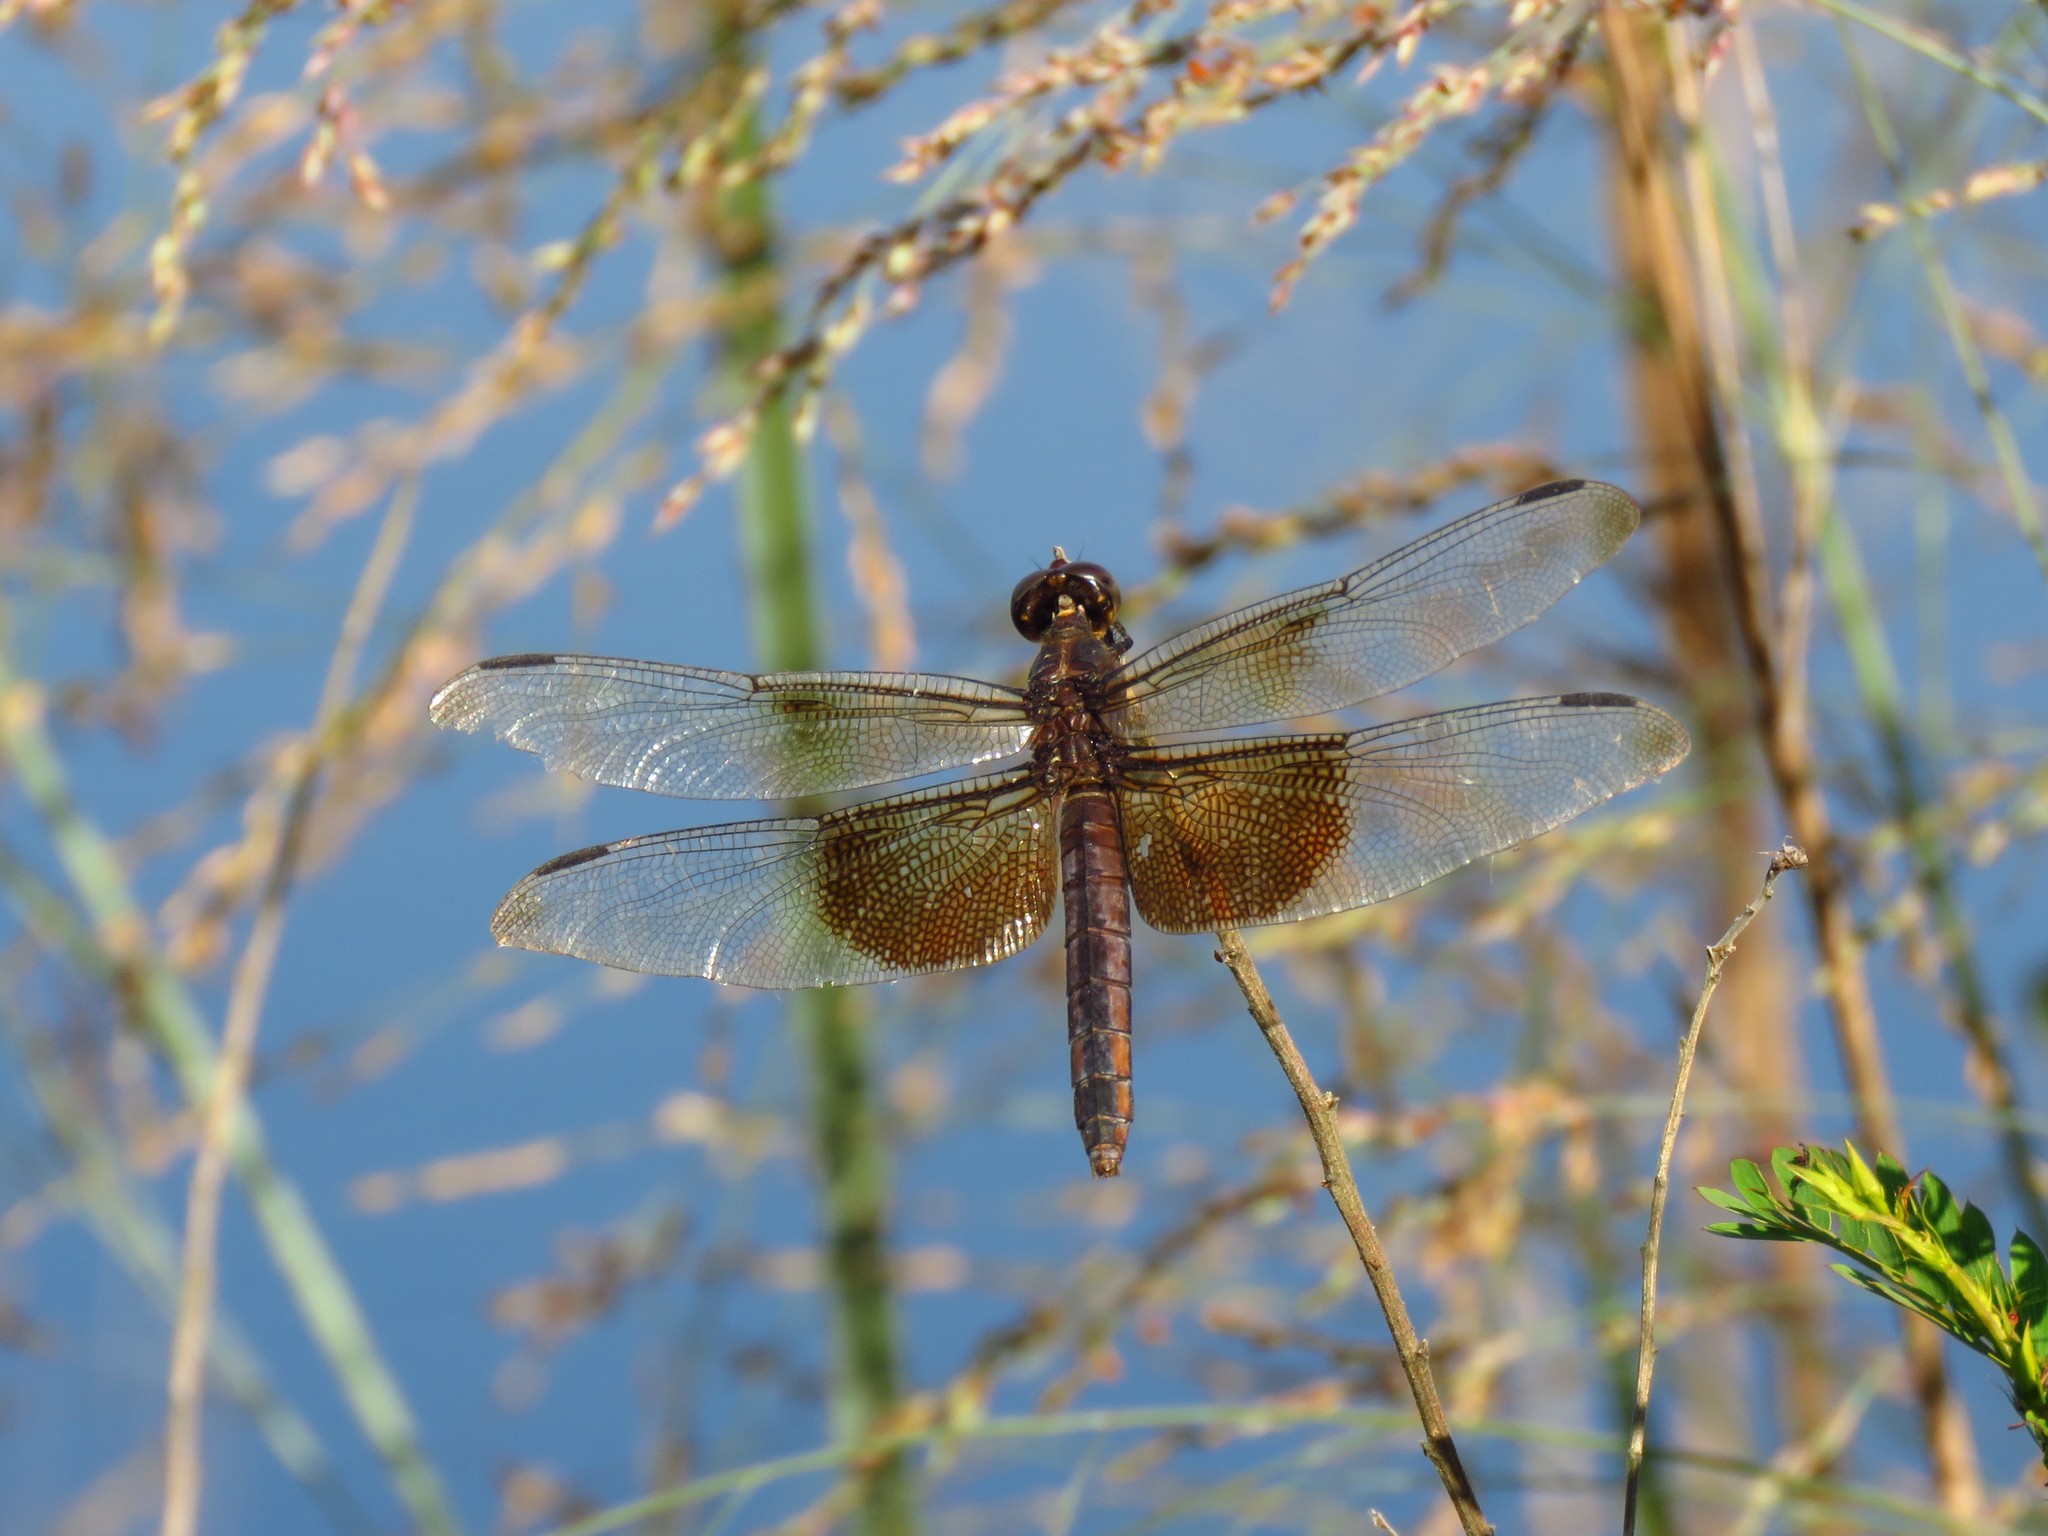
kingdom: Animalia
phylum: Arthropoda
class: Insecta
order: Odonata
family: Libellulidae
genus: Libellula
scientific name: Libellula luctuosa
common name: Widow skimmer
